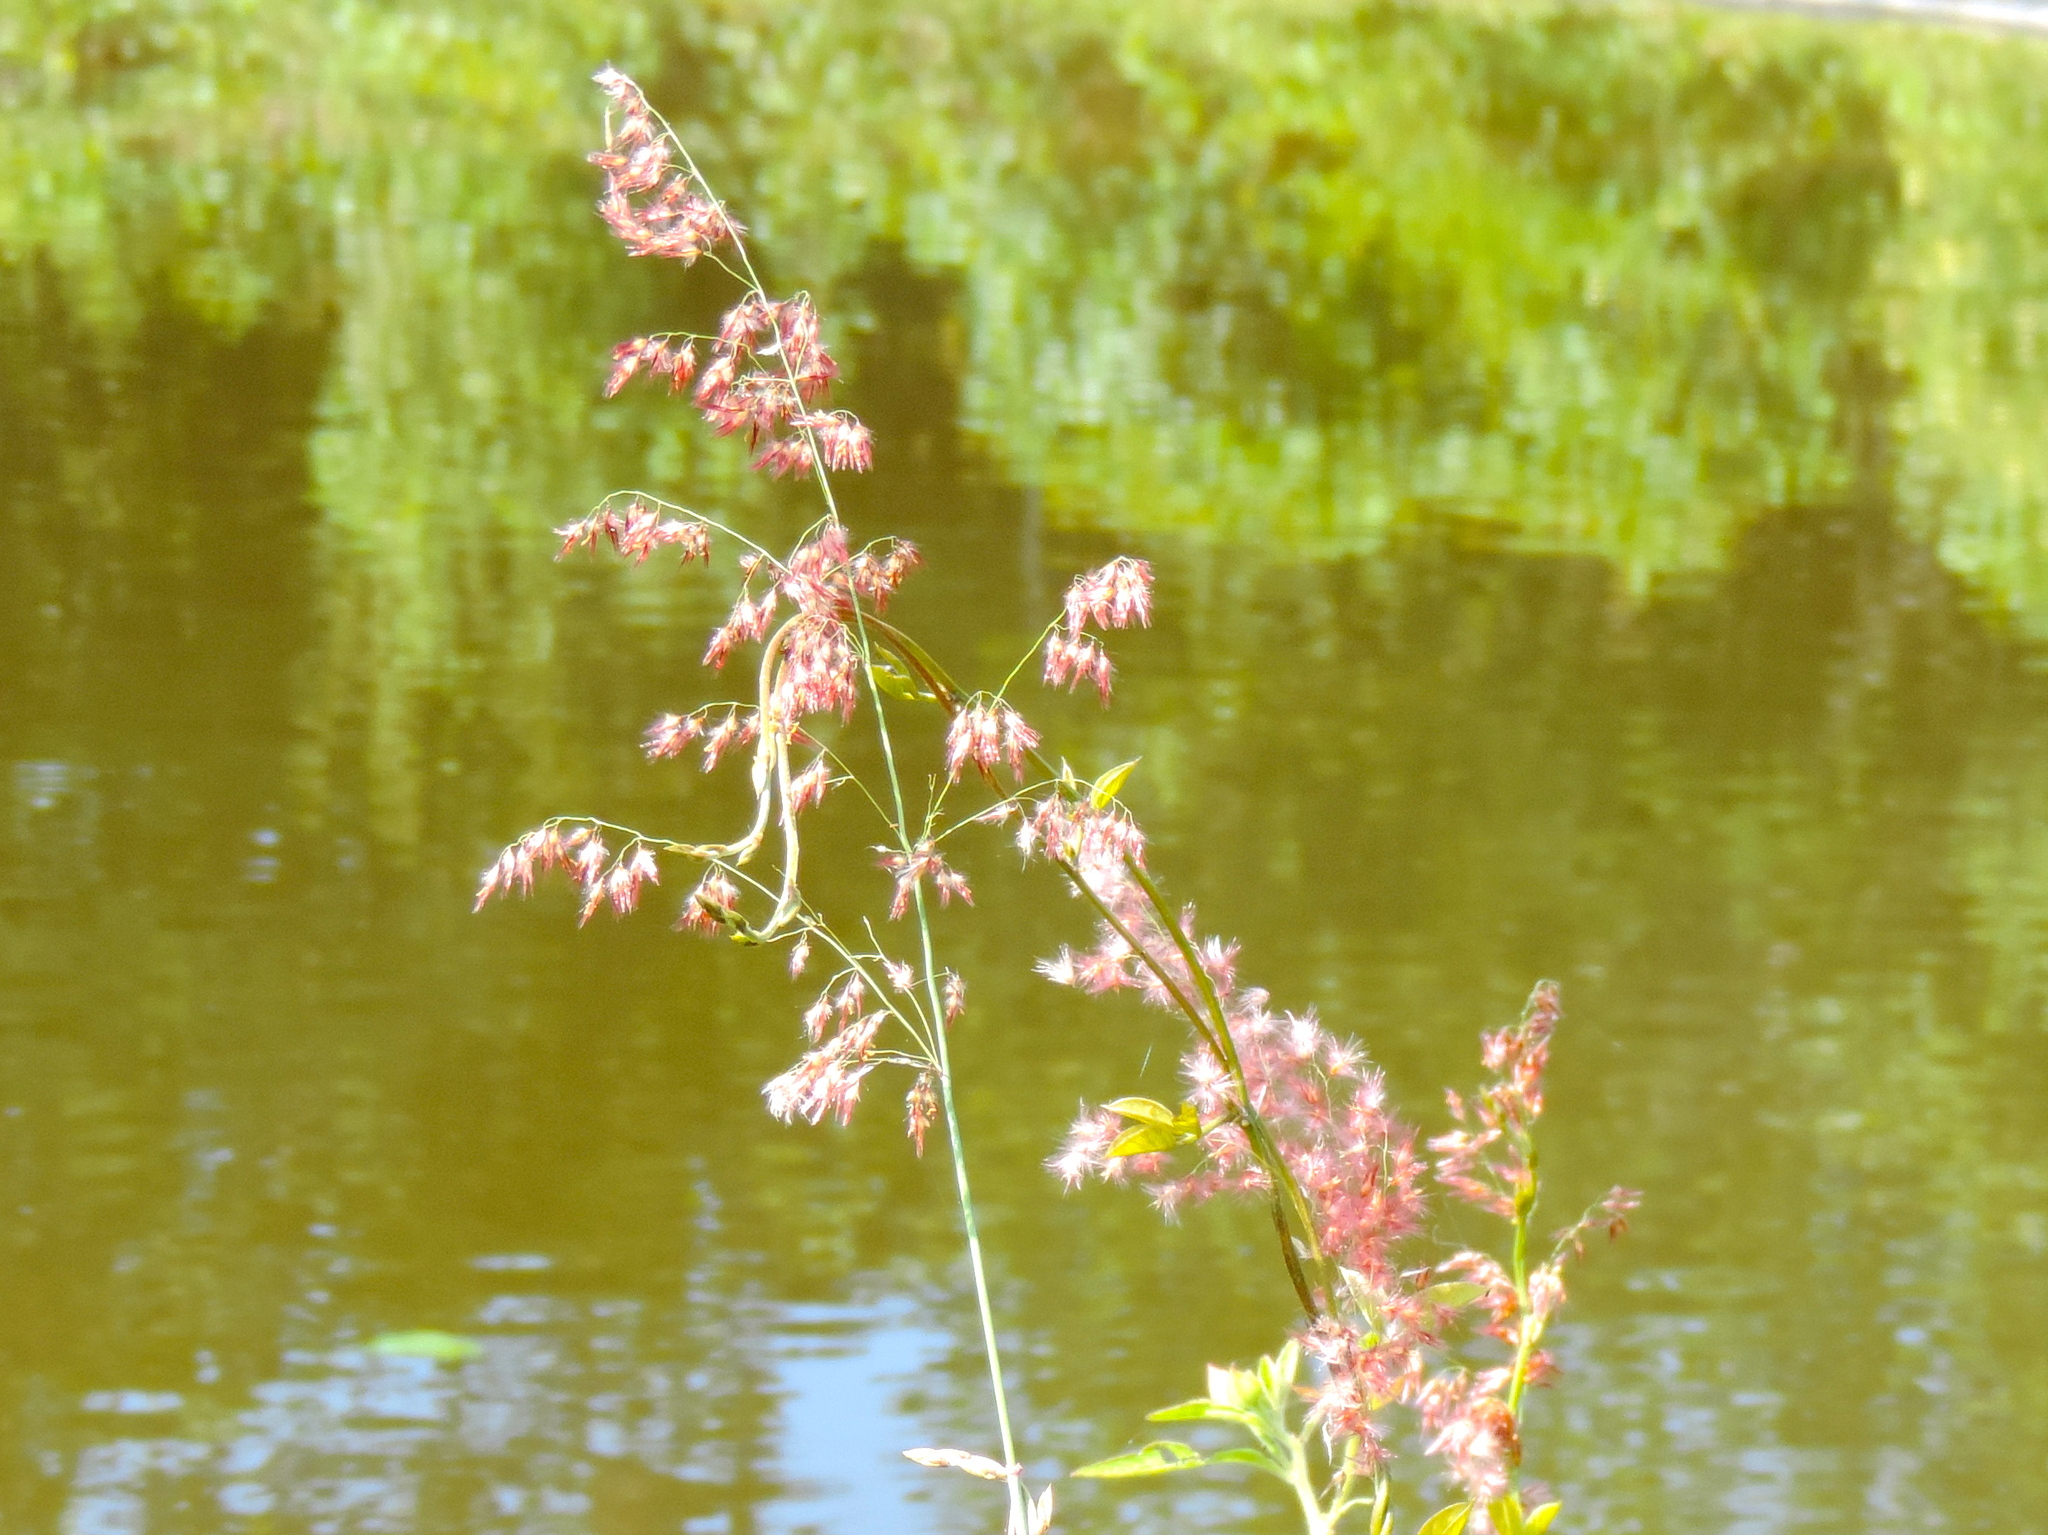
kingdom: Plantae
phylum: Tracheophyta
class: Liliopsida
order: Poales
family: Poaceae
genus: Melinis
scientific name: Melinis repens
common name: Rose natal grass
